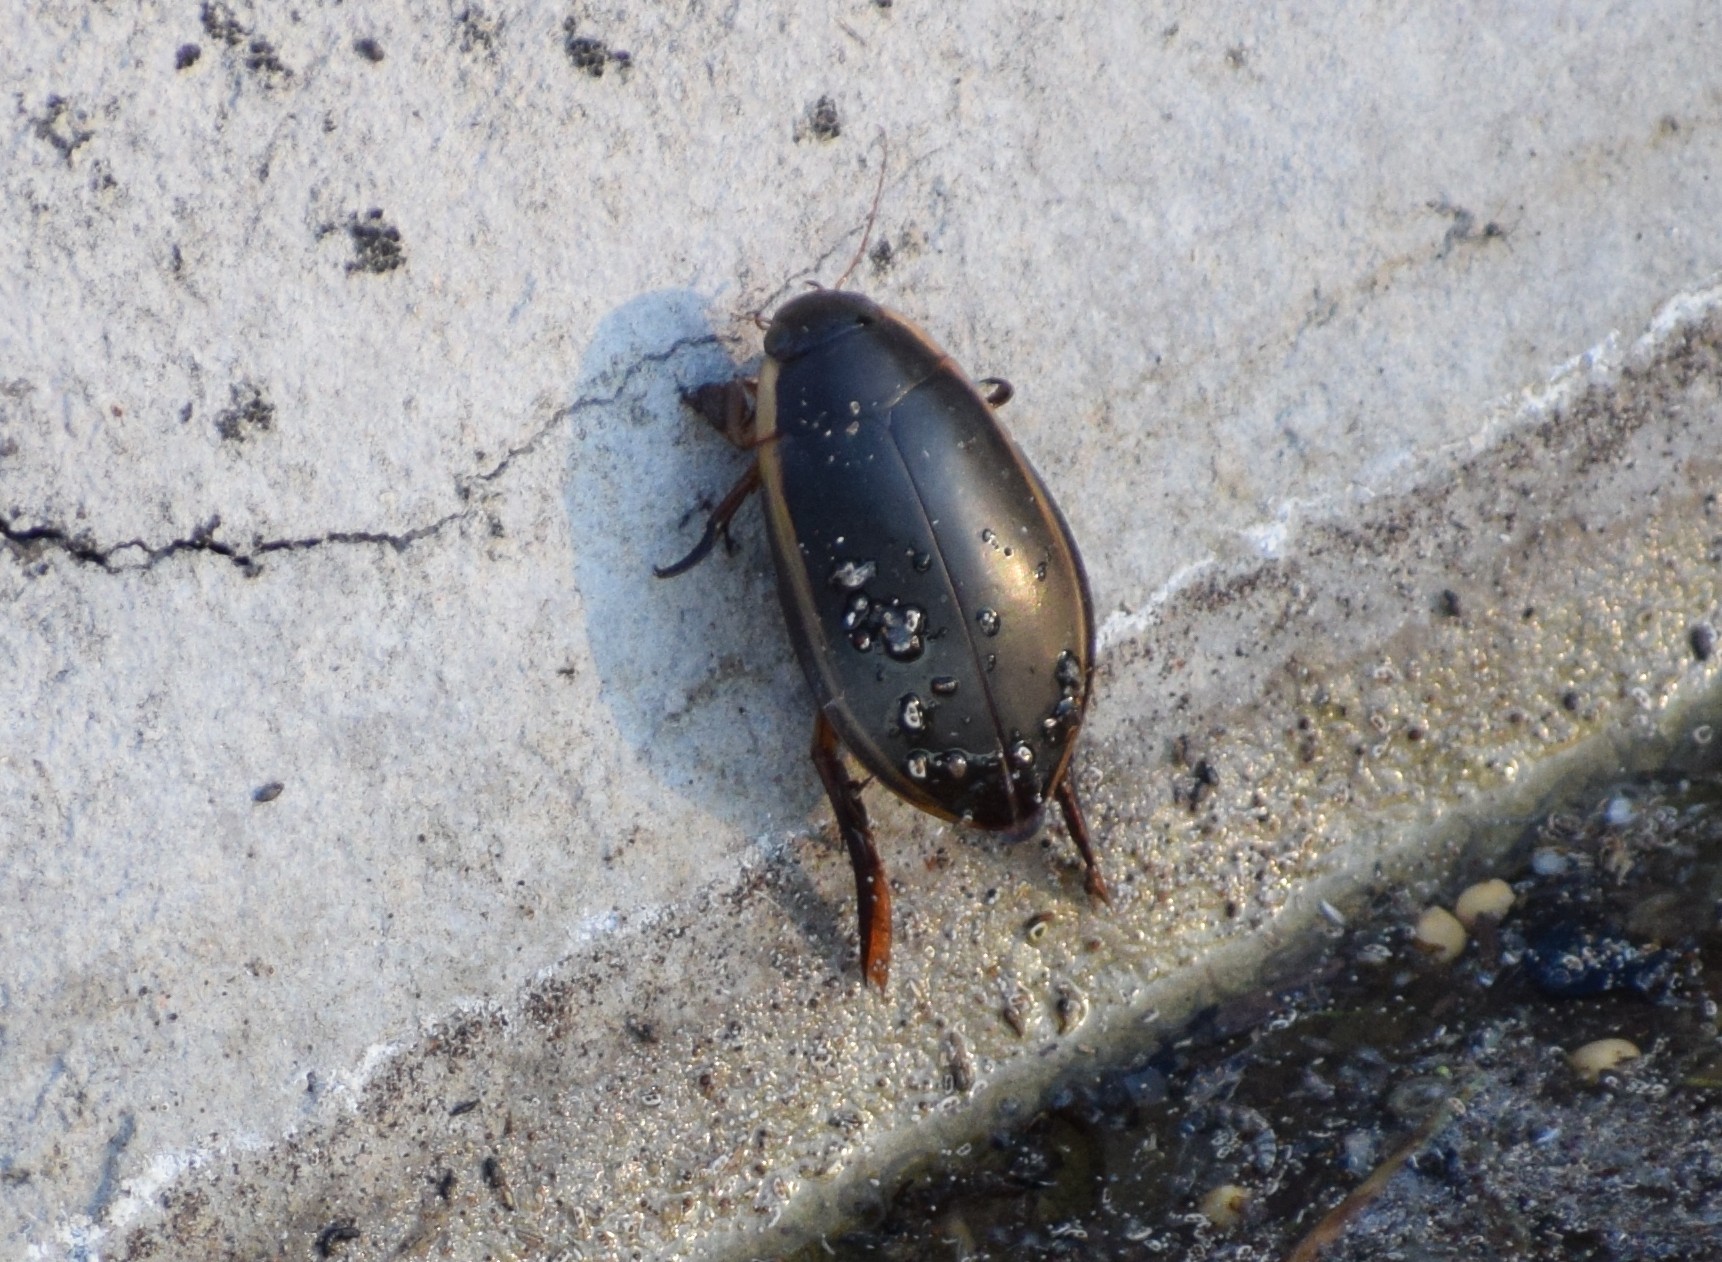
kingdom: Animalia
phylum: Arthropoda
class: Insecta
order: Coleoptera
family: Dytiscidae
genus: Cybister
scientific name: Cybister lateralimarginalis
